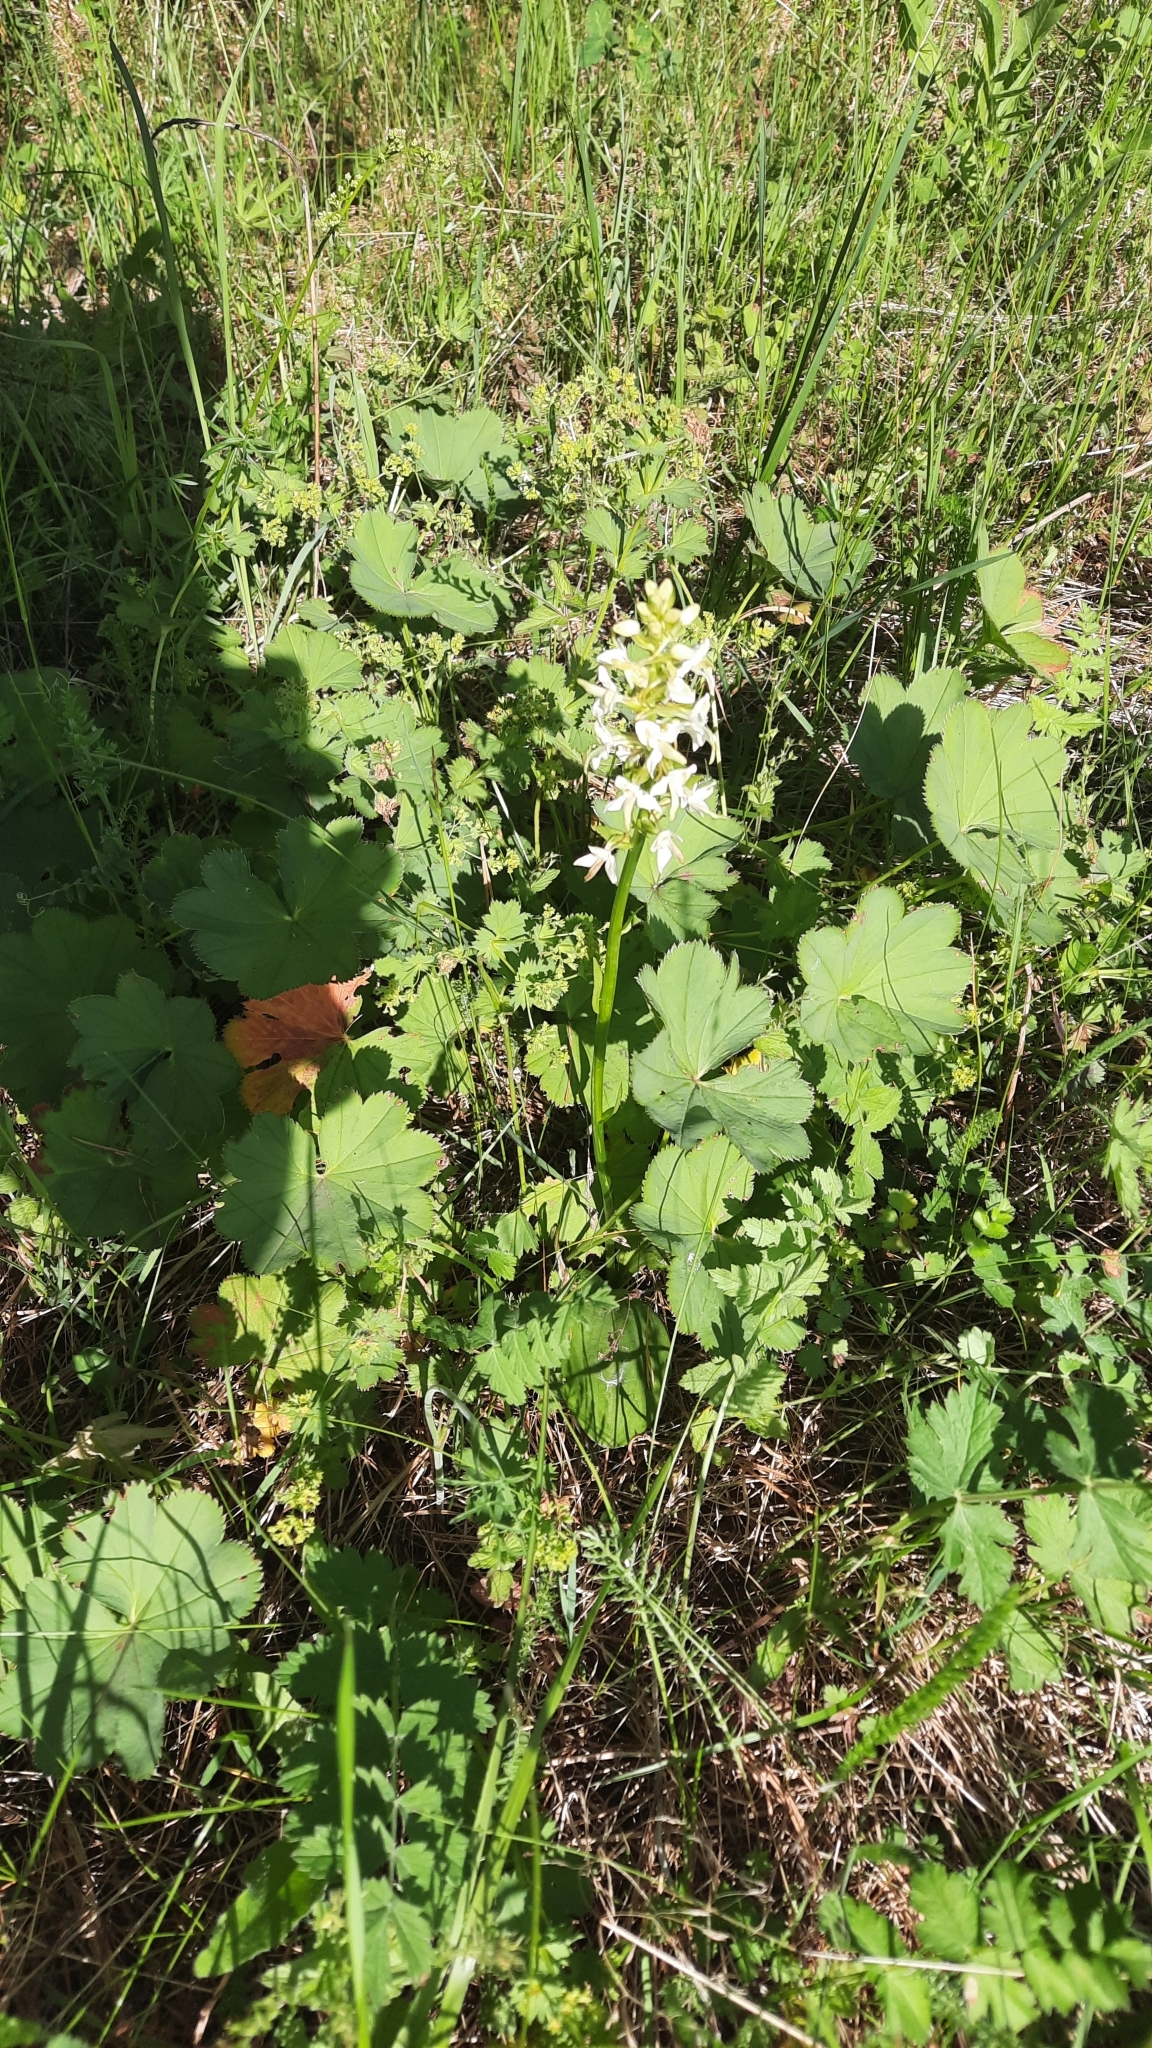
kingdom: Plantae
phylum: Tracheophyta
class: Liliopsida
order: Asparagales
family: Orchidaceae
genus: Platanthera
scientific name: Platanthera bifolia
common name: Lesser butterfly-orchid
